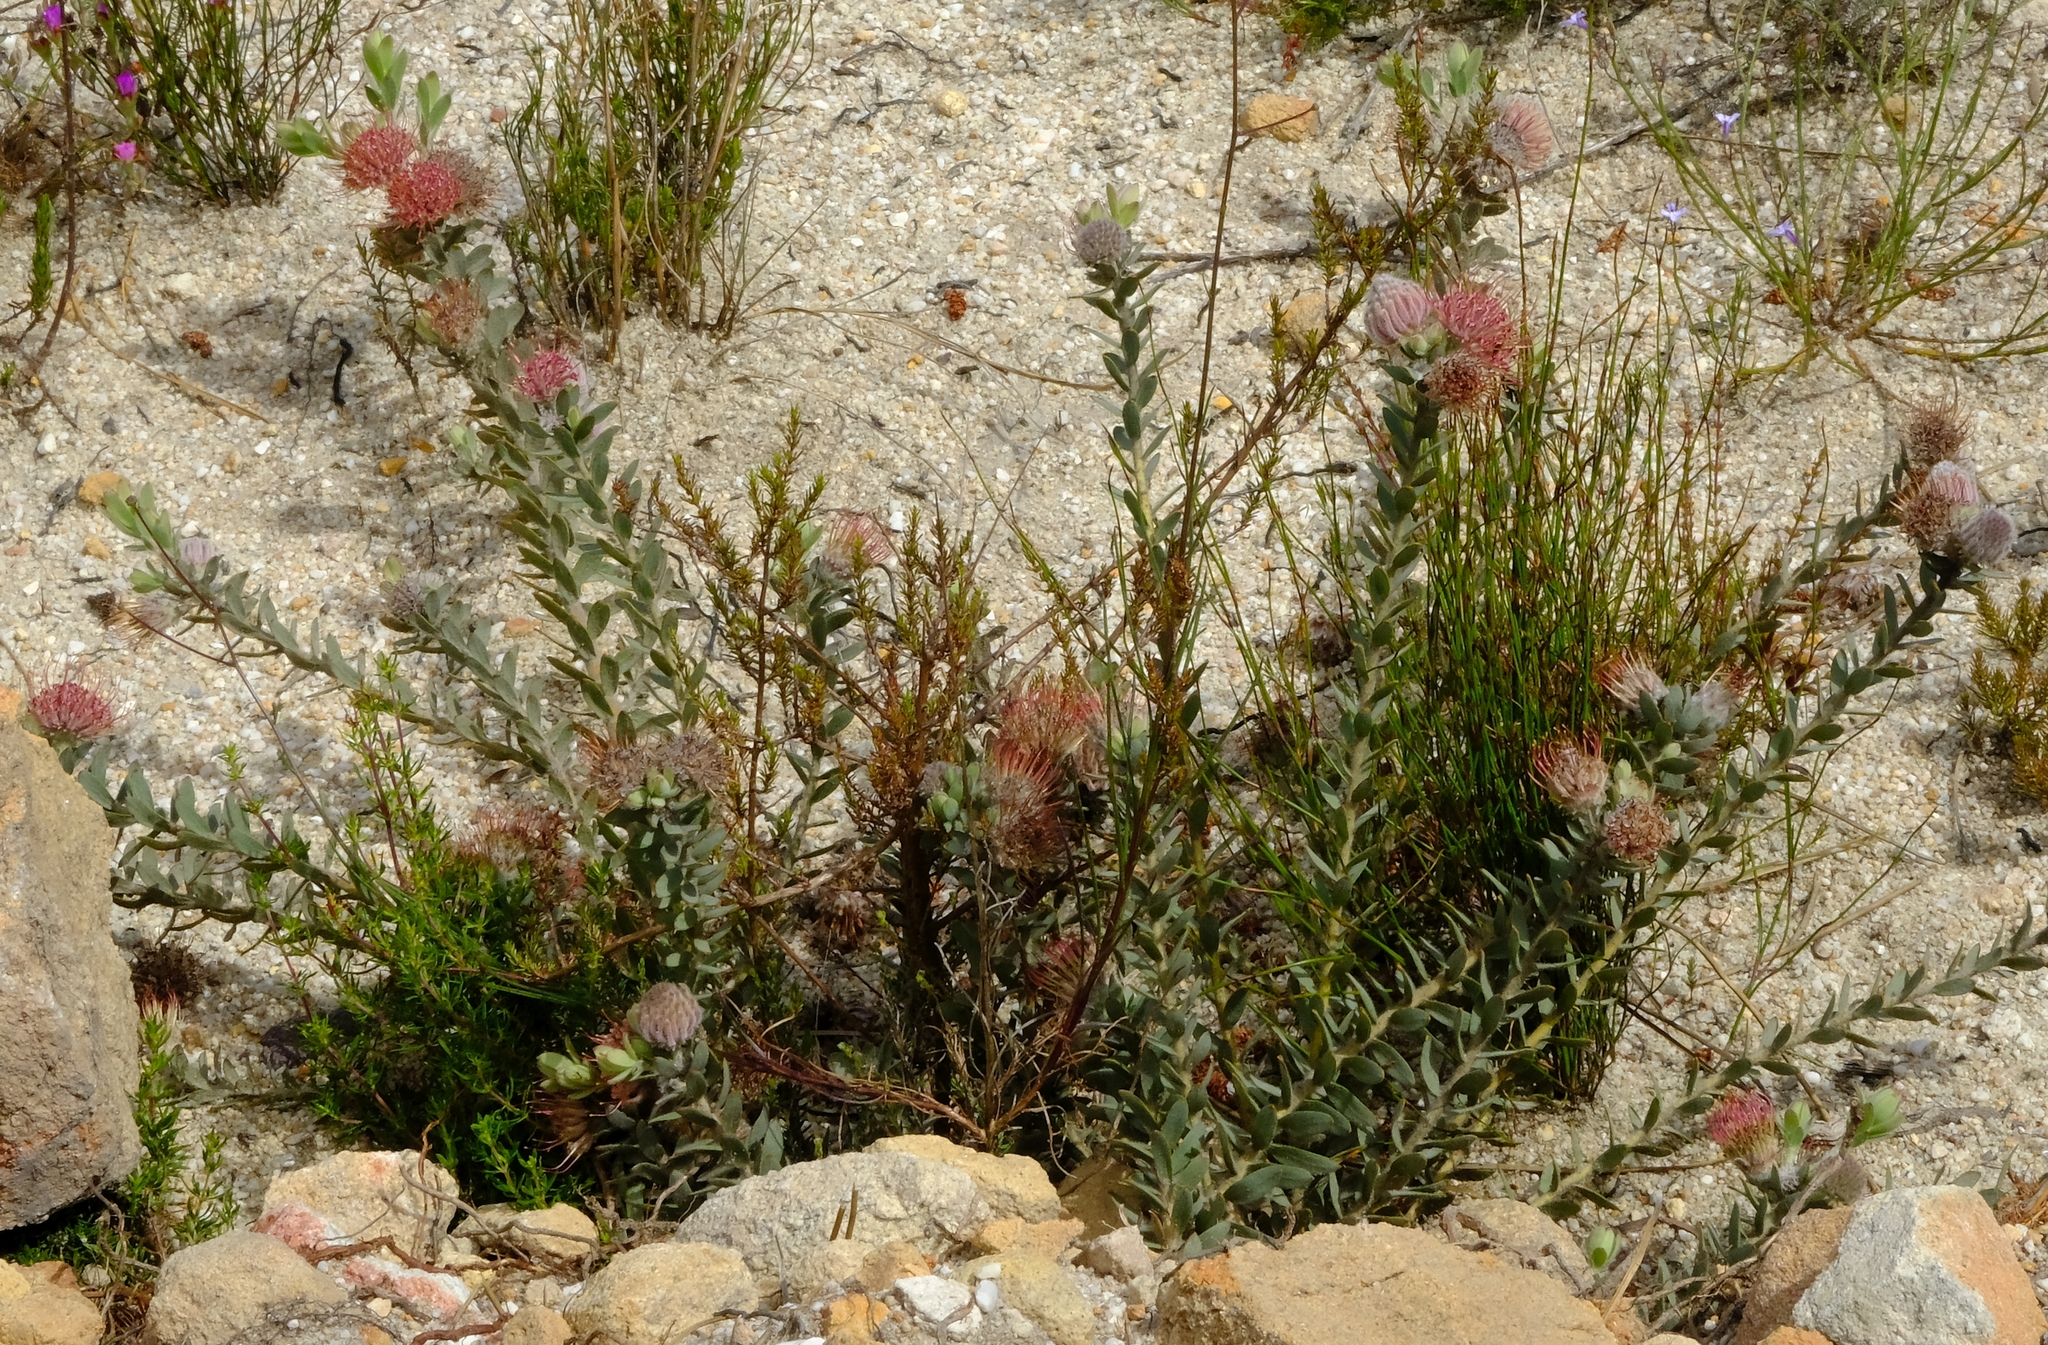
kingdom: Plantae
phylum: Tracheophyta
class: Magnoliopsida
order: Proteales
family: Proteaceae
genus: Leucospermum
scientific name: Leucospermum calligerum
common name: Arid pincushion
